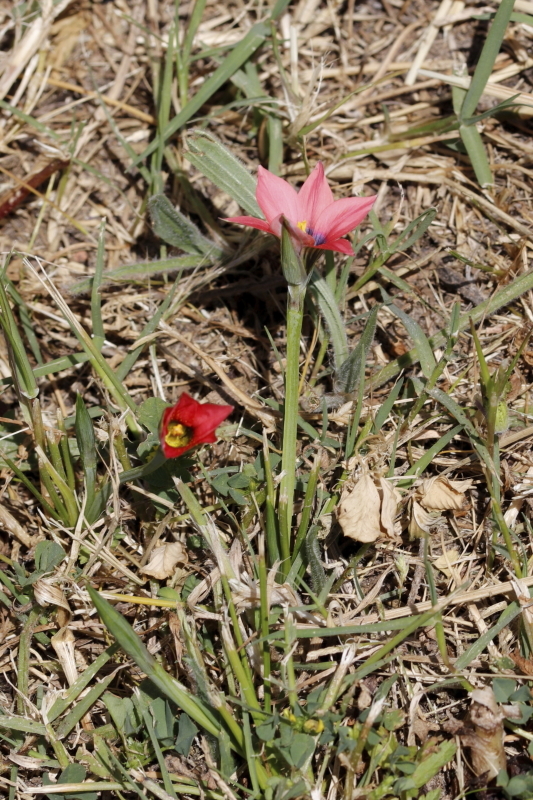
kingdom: Plantae
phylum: Tracheophyta
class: Liliopsida
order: Asparagales
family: Iridaceae
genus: Romulea
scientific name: Romulea obscura
